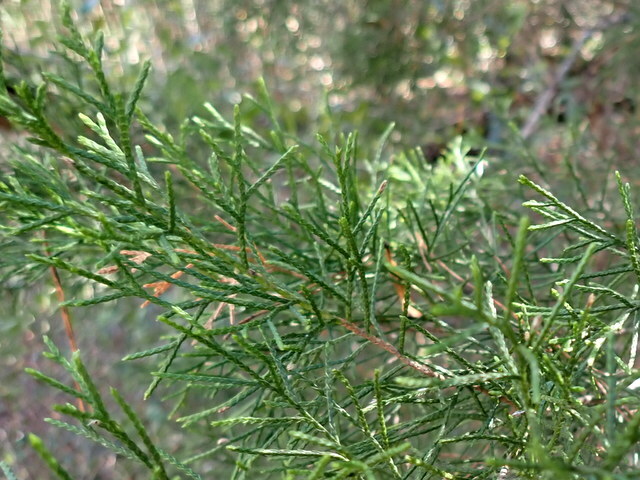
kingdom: Plantae
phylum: Tracheophyta
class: Pinopsida
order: Pinales
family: Cupressaceae
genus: Juniperus
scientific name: Juniperus virginiana
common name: Red juniper
